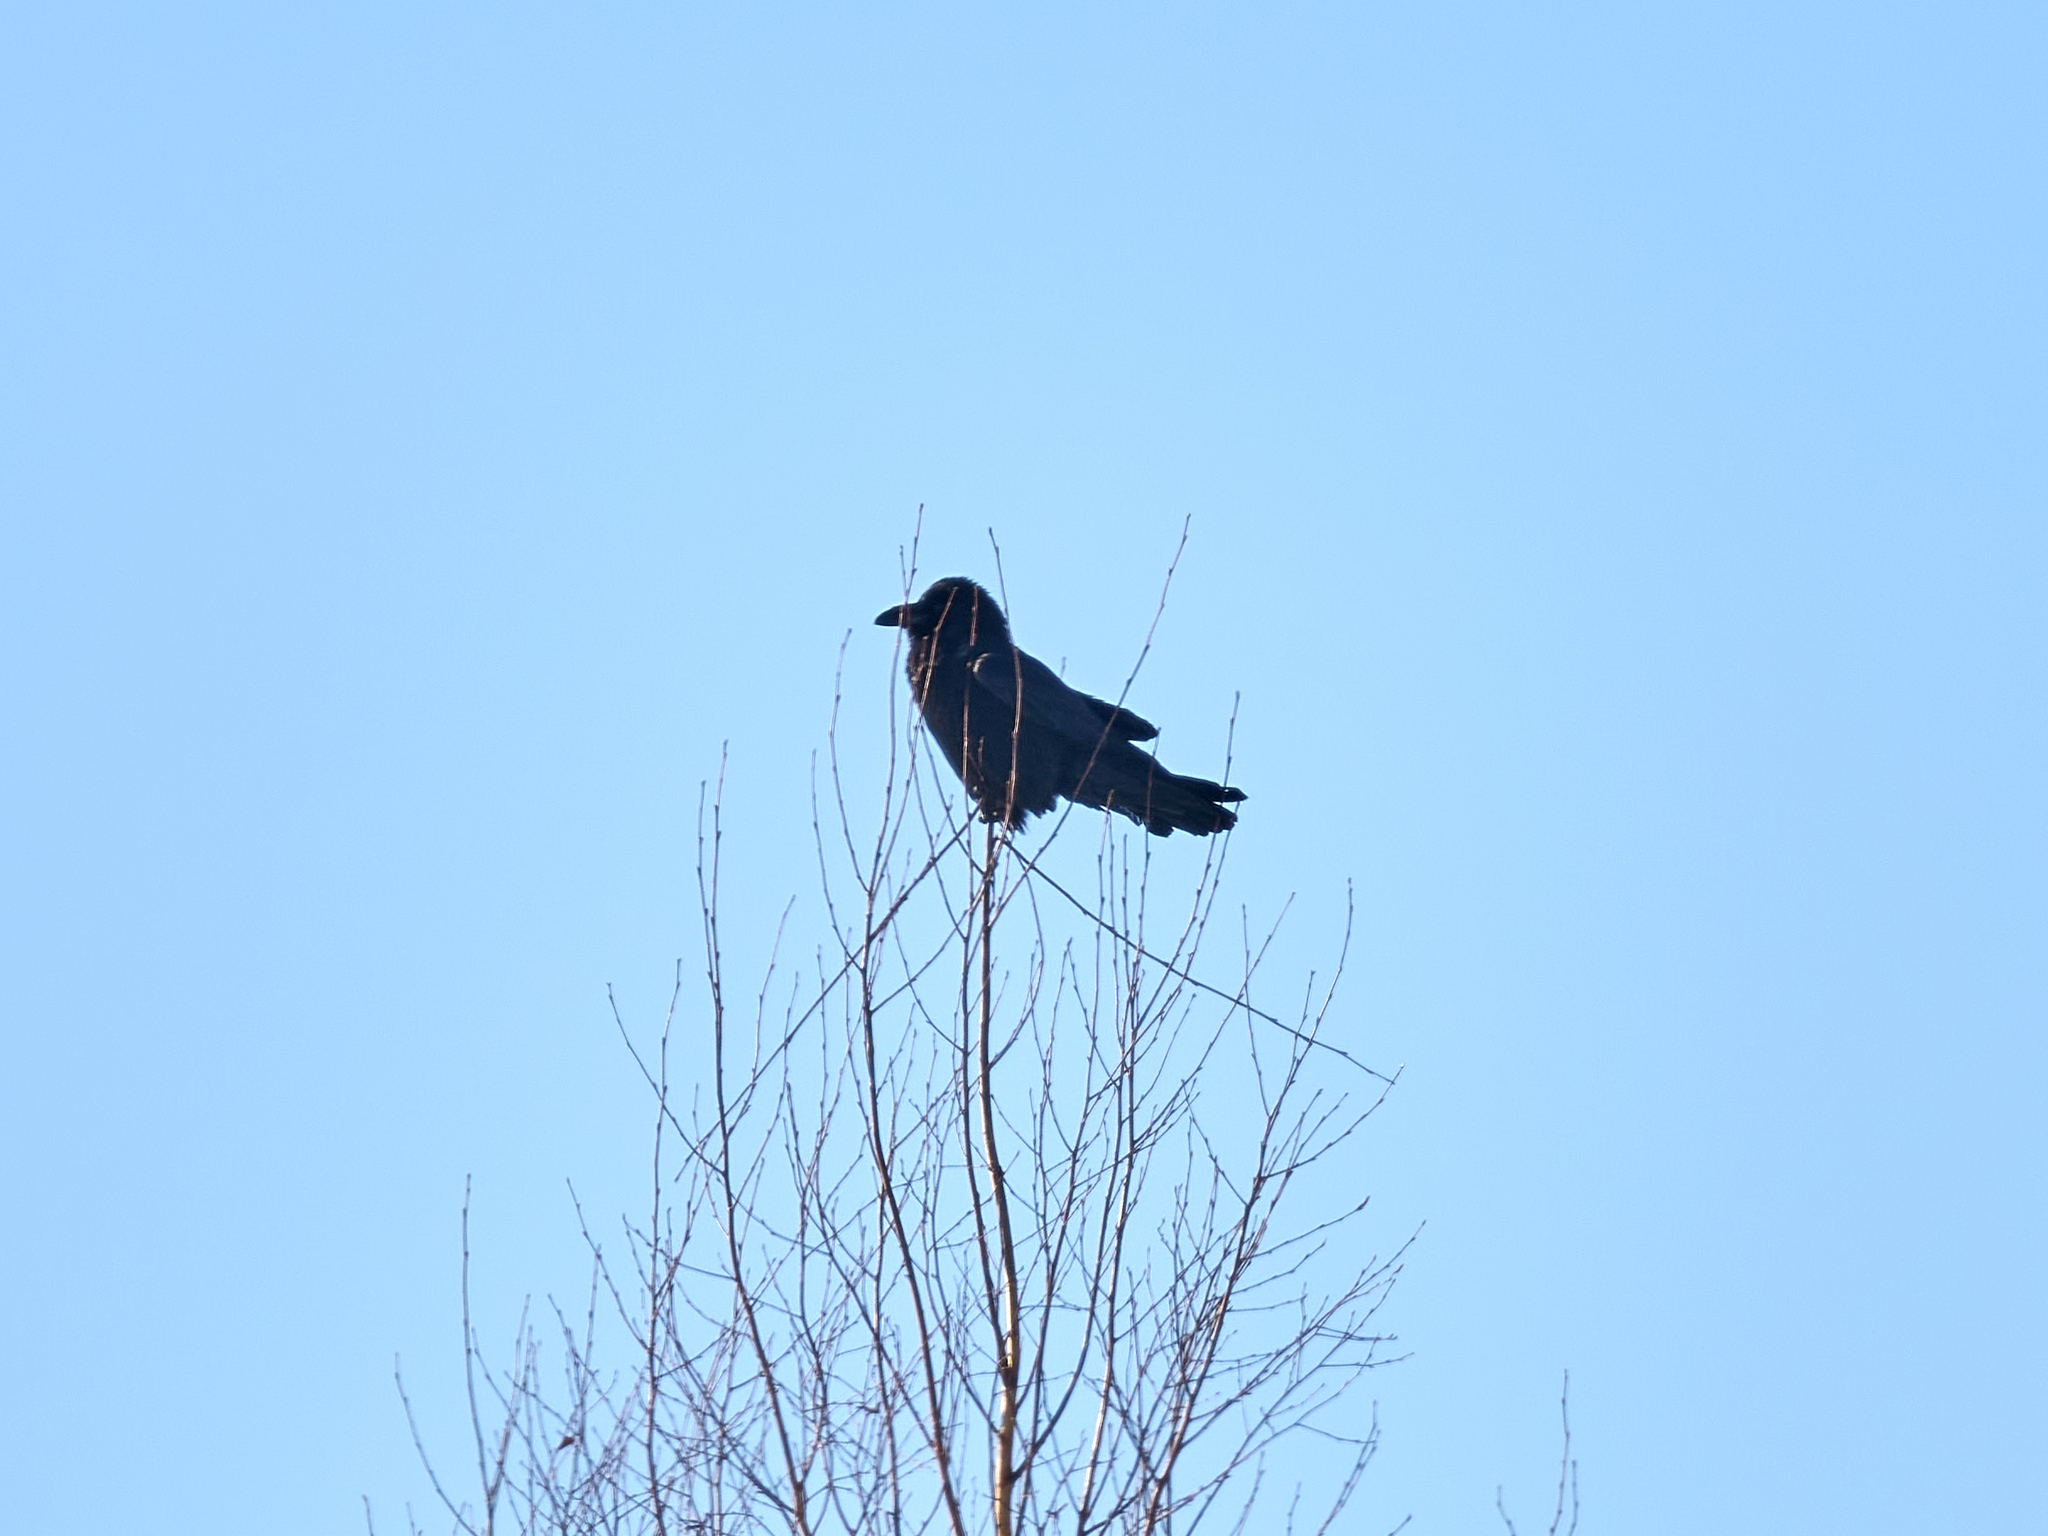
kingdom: Animalia
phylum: Chordata
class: Aves
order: Passeriformes
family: Corvidae
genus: Corvus
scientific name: Corvus corax
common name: Common raven
